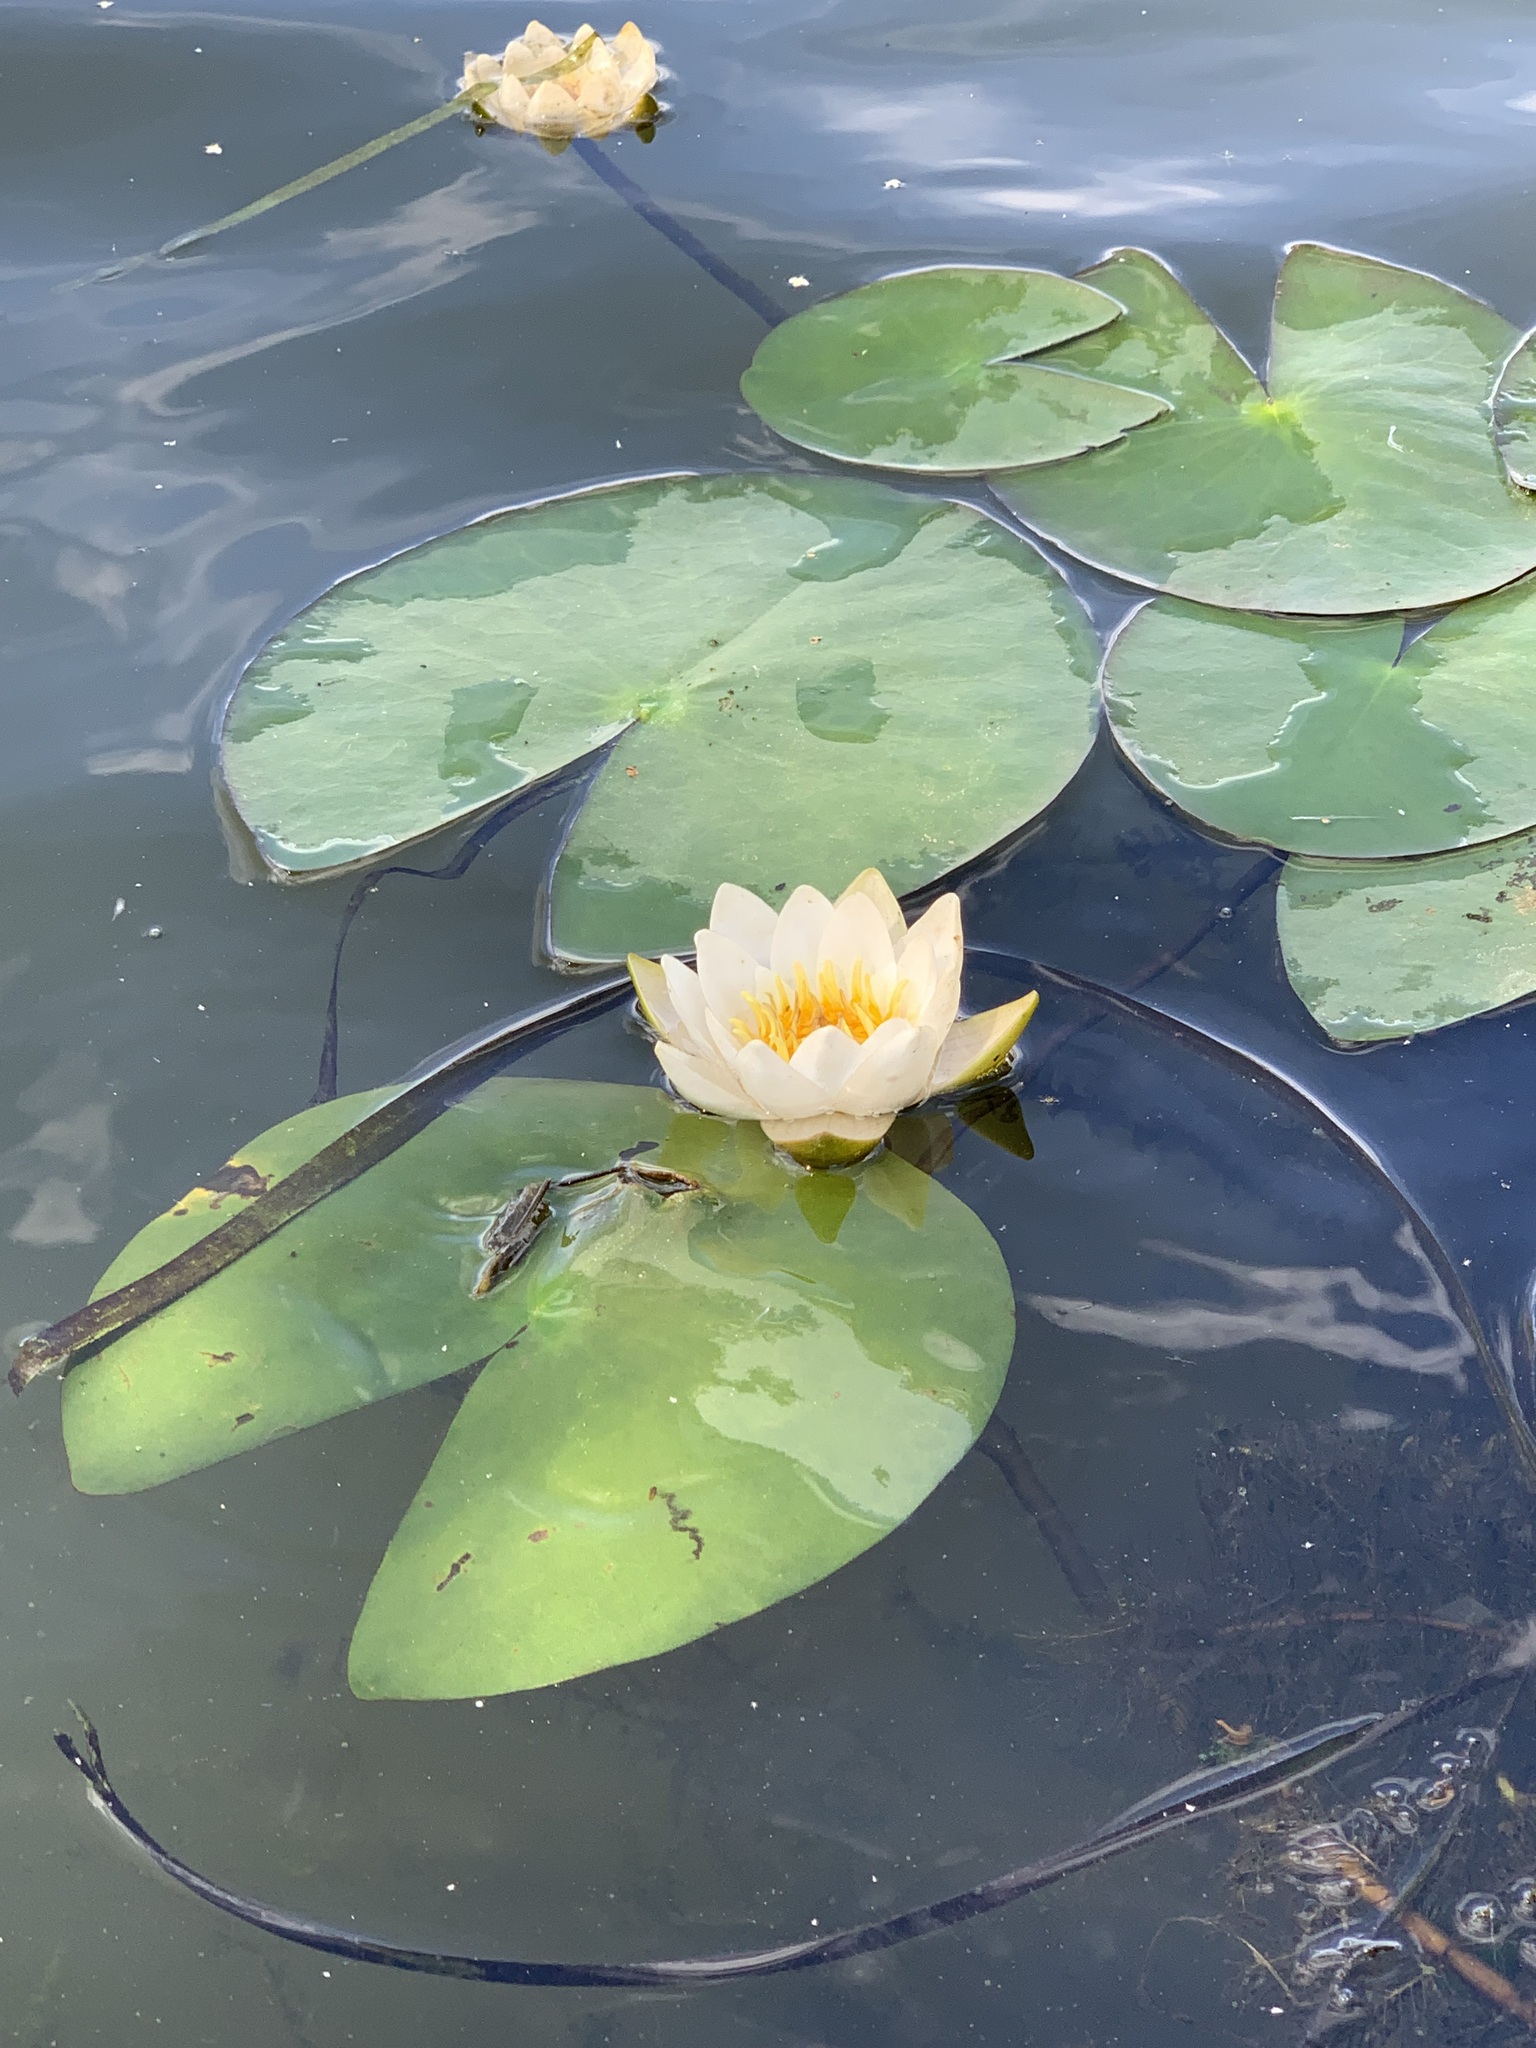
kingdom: Plantae
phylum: Tracheophyta
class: Magnoliopsida
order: Nymphaeales
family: Nymphaeaceae
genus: Nymphaea
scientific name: Nymphaea candida
